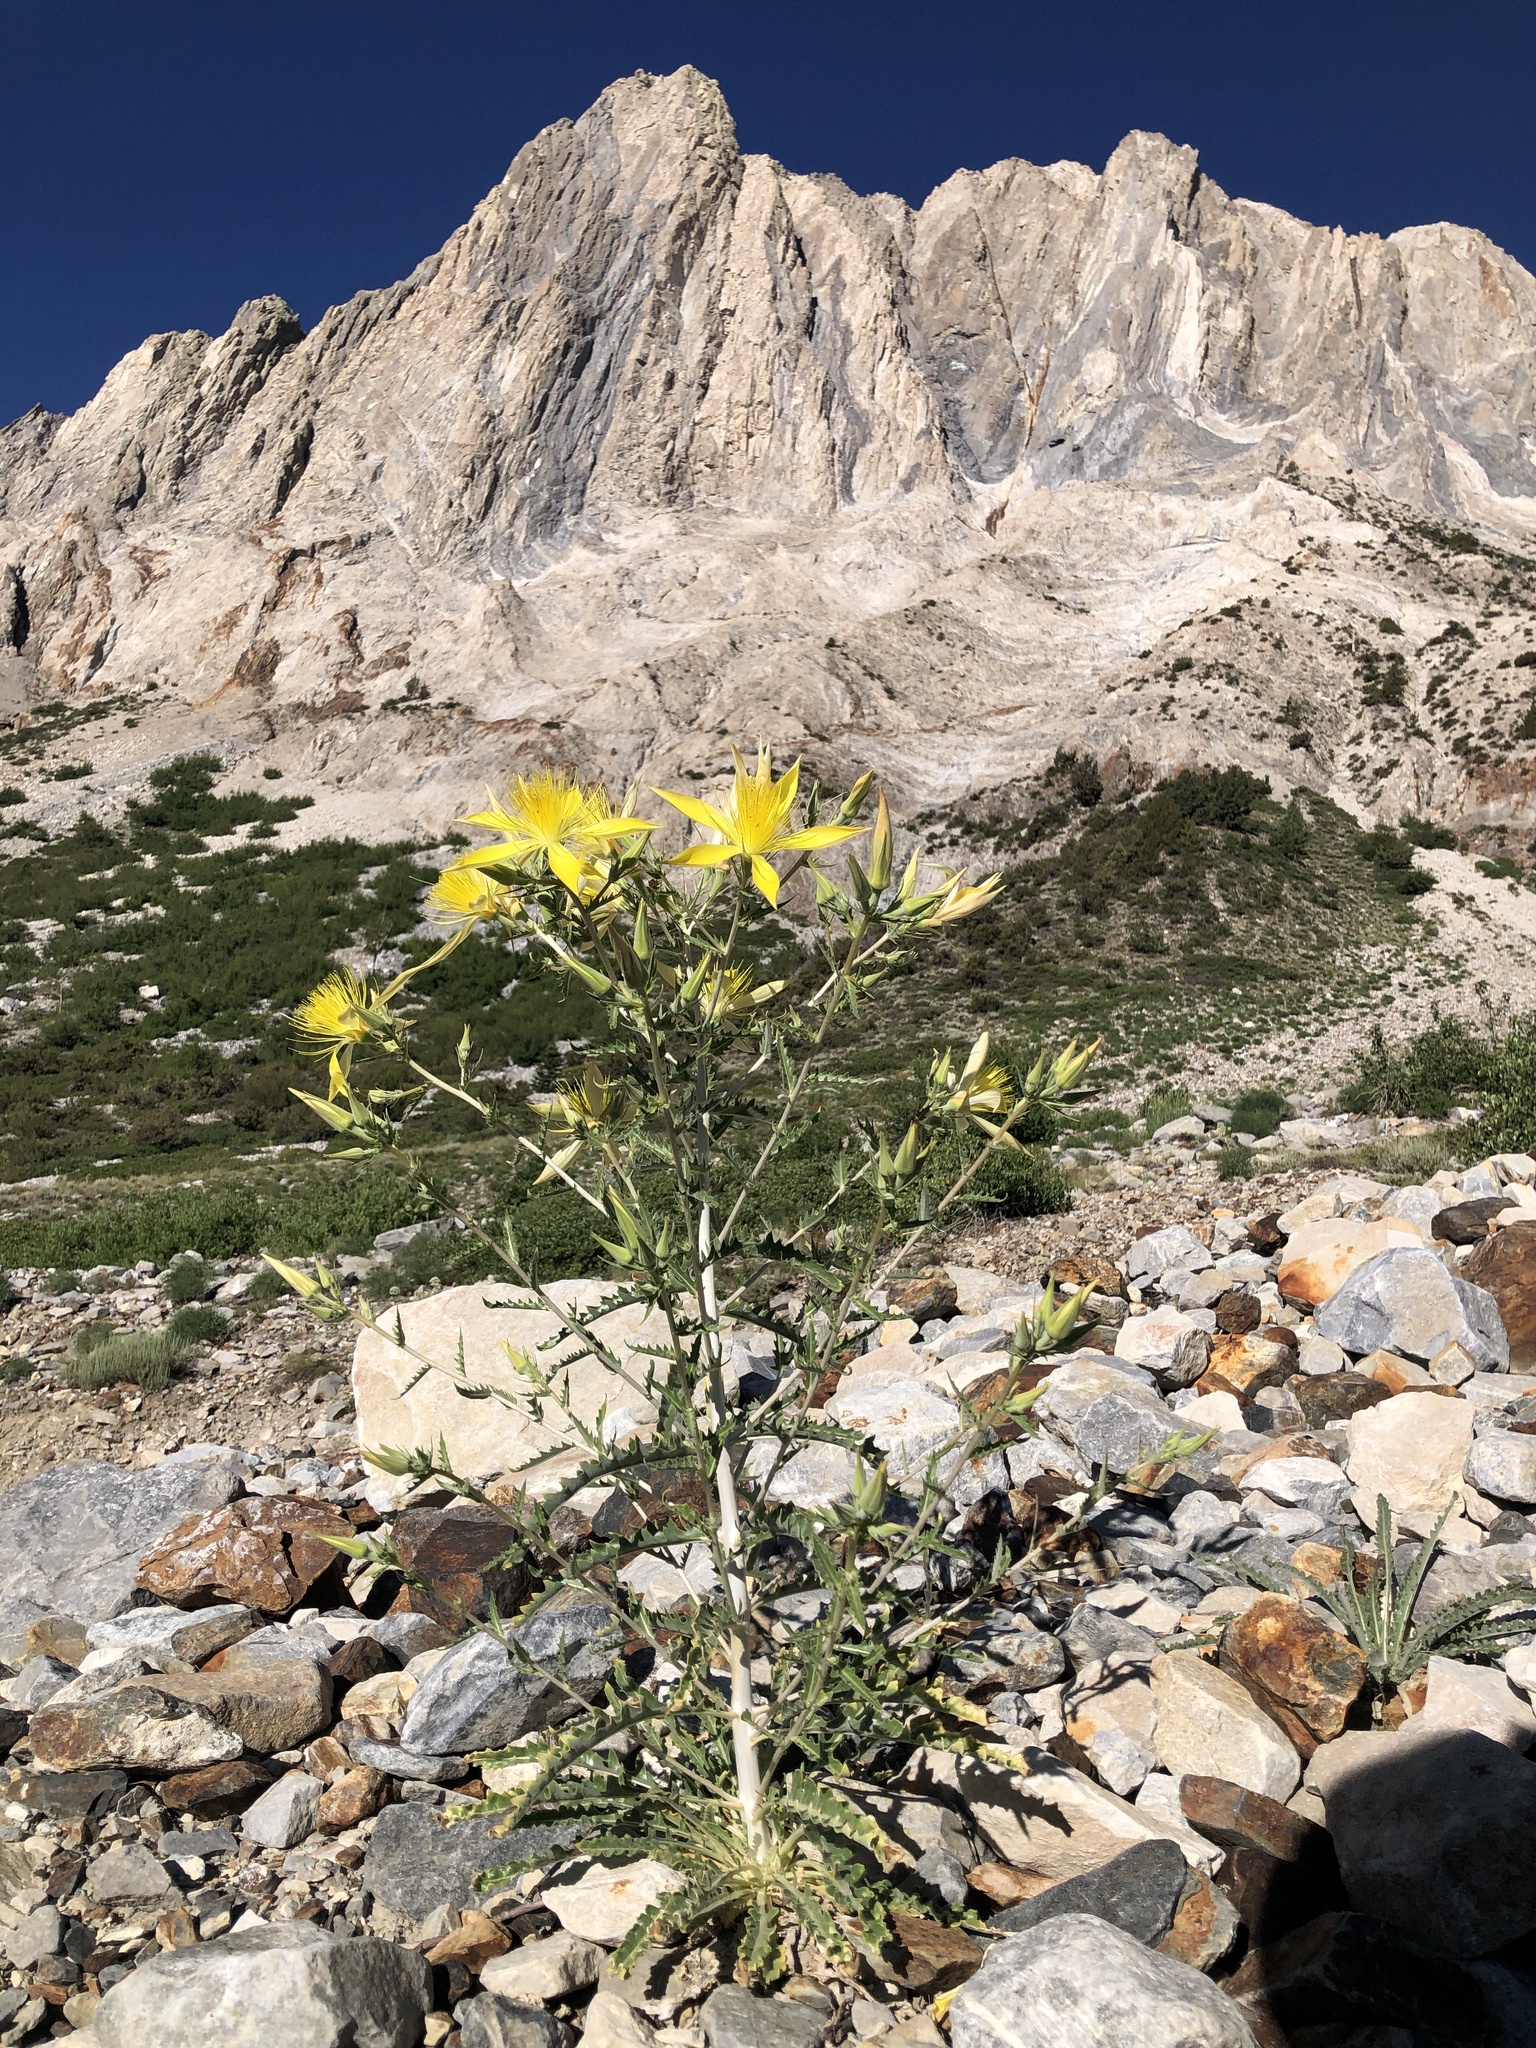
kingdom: Plantae
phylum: Tracheophyta
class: Magnoliopsida
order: Cornales
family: Loasaceae
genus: Mentzelia
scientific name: Mentzelia laevicaulis
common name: Smooth-stem blazingstar
